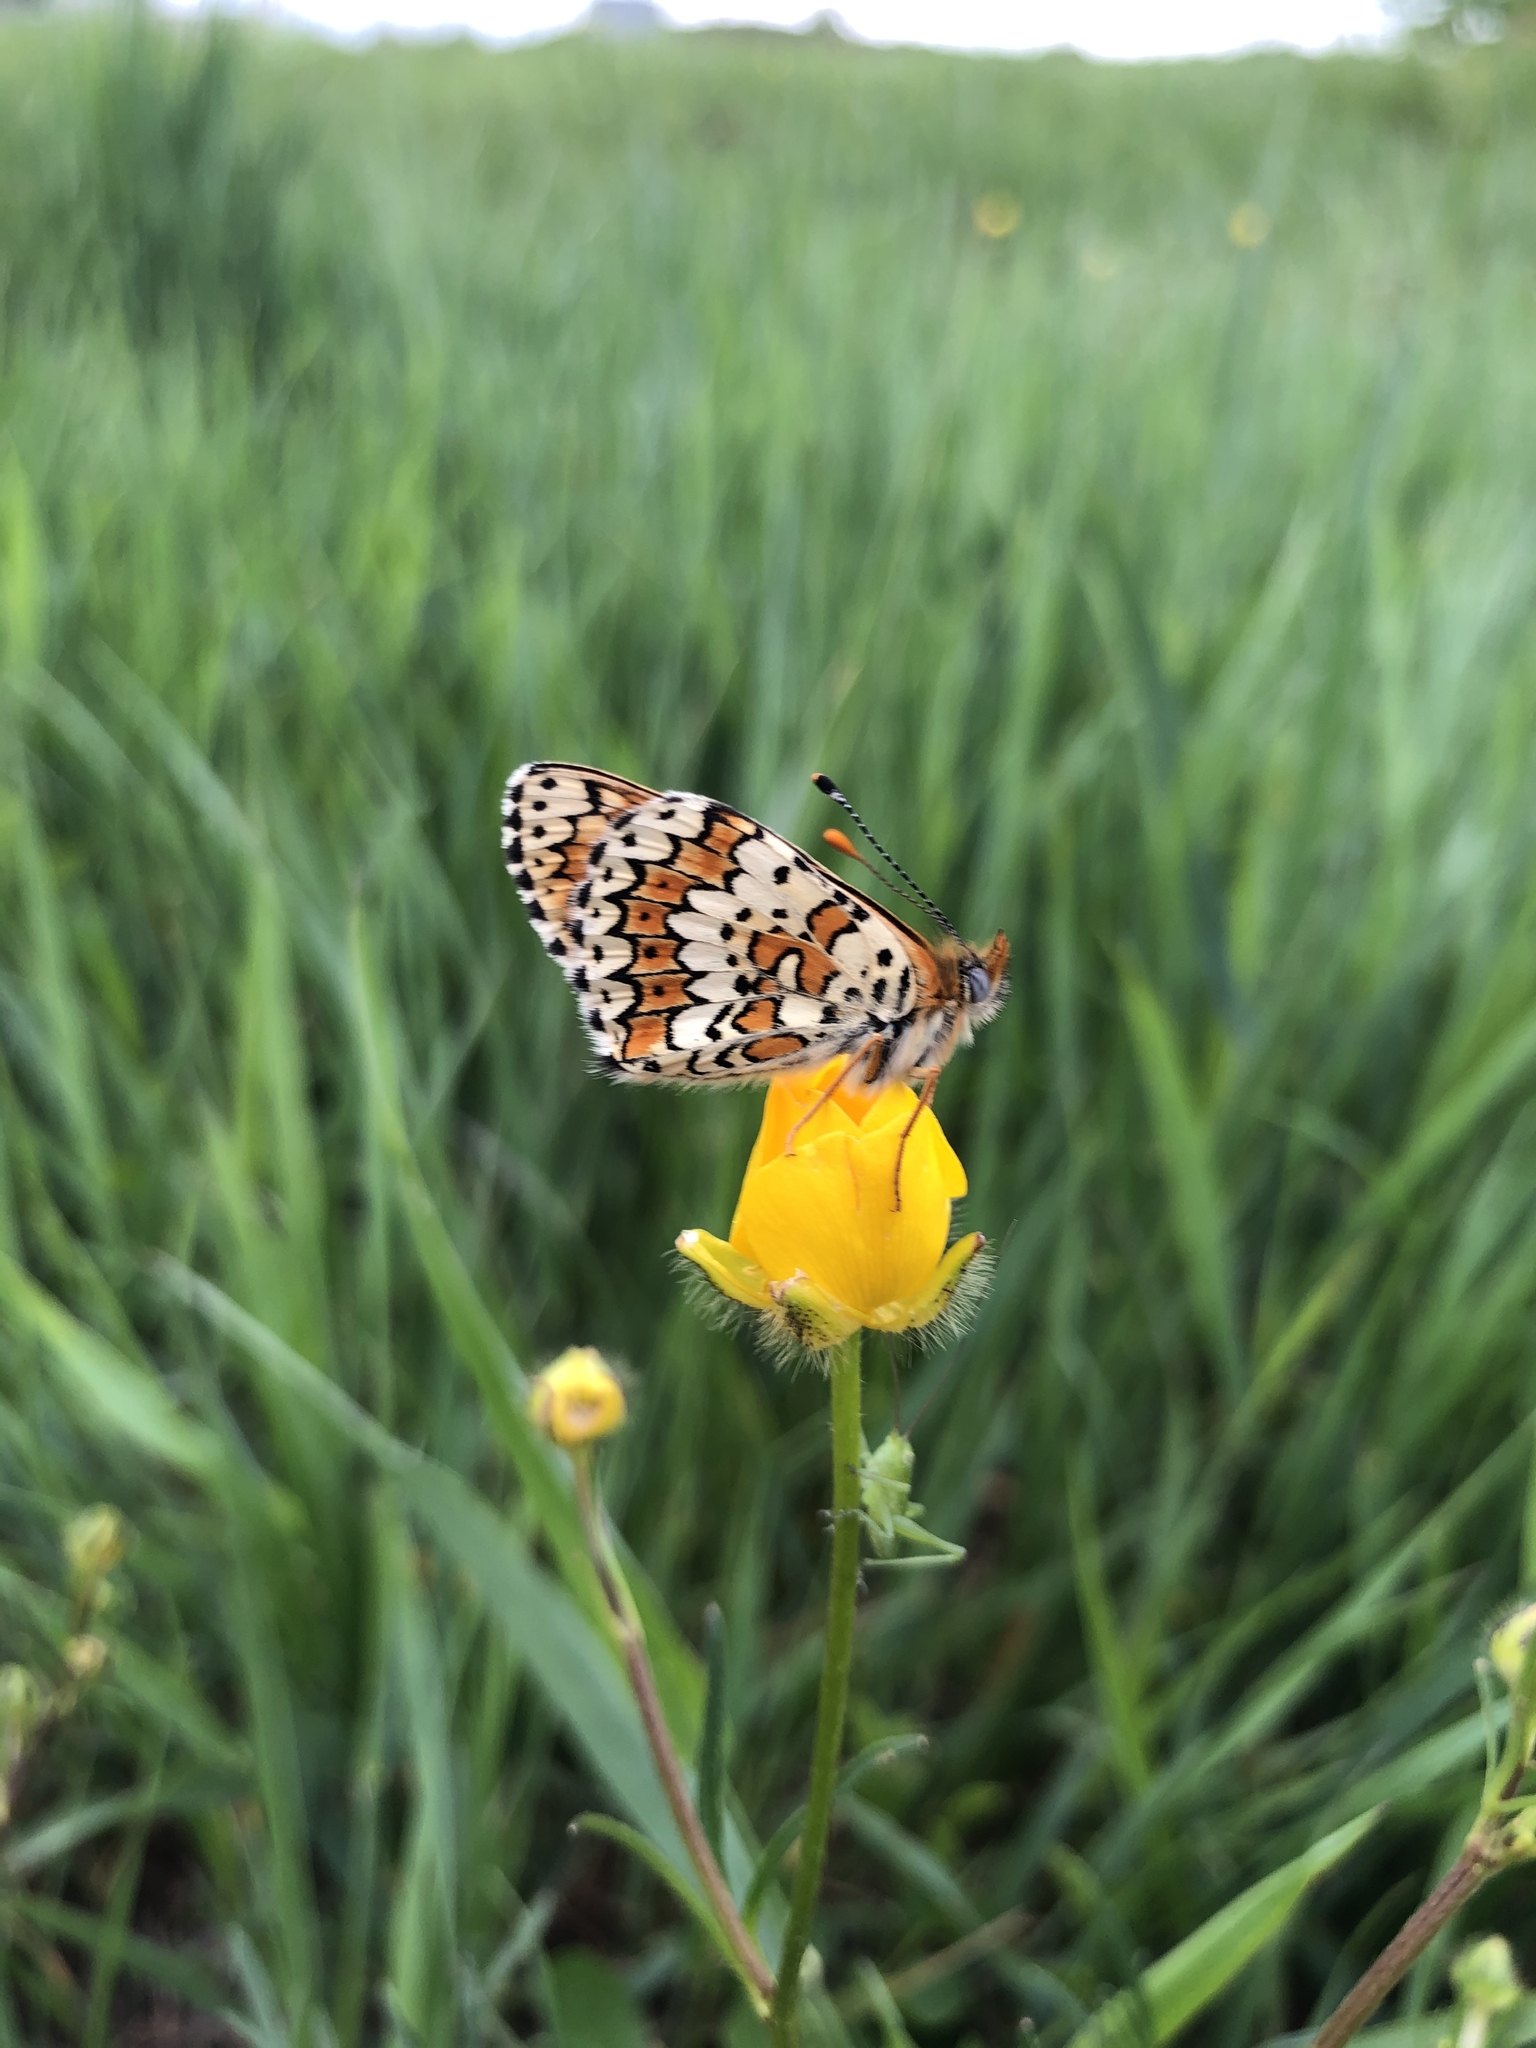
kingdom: Animalia
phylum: Arthropoda
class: Insecta
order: Lepidoptera
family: Nymphalidae
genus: Melitaea
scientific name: Melitaea cinxia
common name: Glanville fritillary
